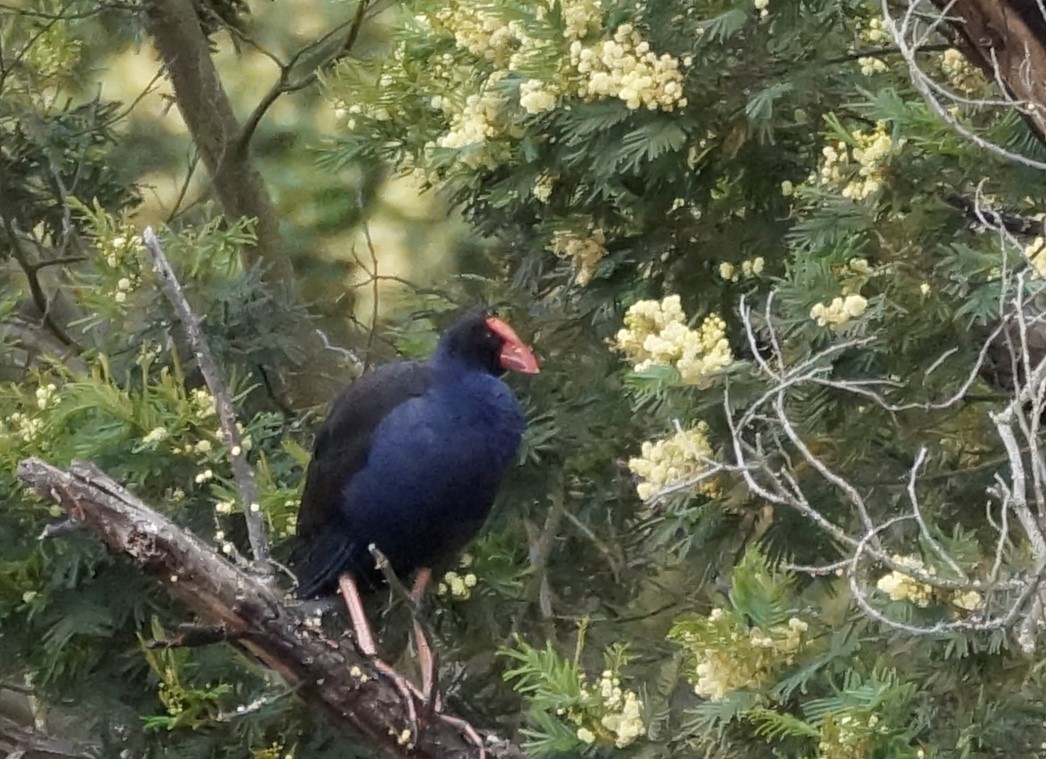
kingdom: Animalia
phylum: Chordata
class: Aves
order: Gruiformes
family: Rallidae
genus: Porphyrio
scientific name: Porphyrio melanotus
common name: Australasian swamphen
